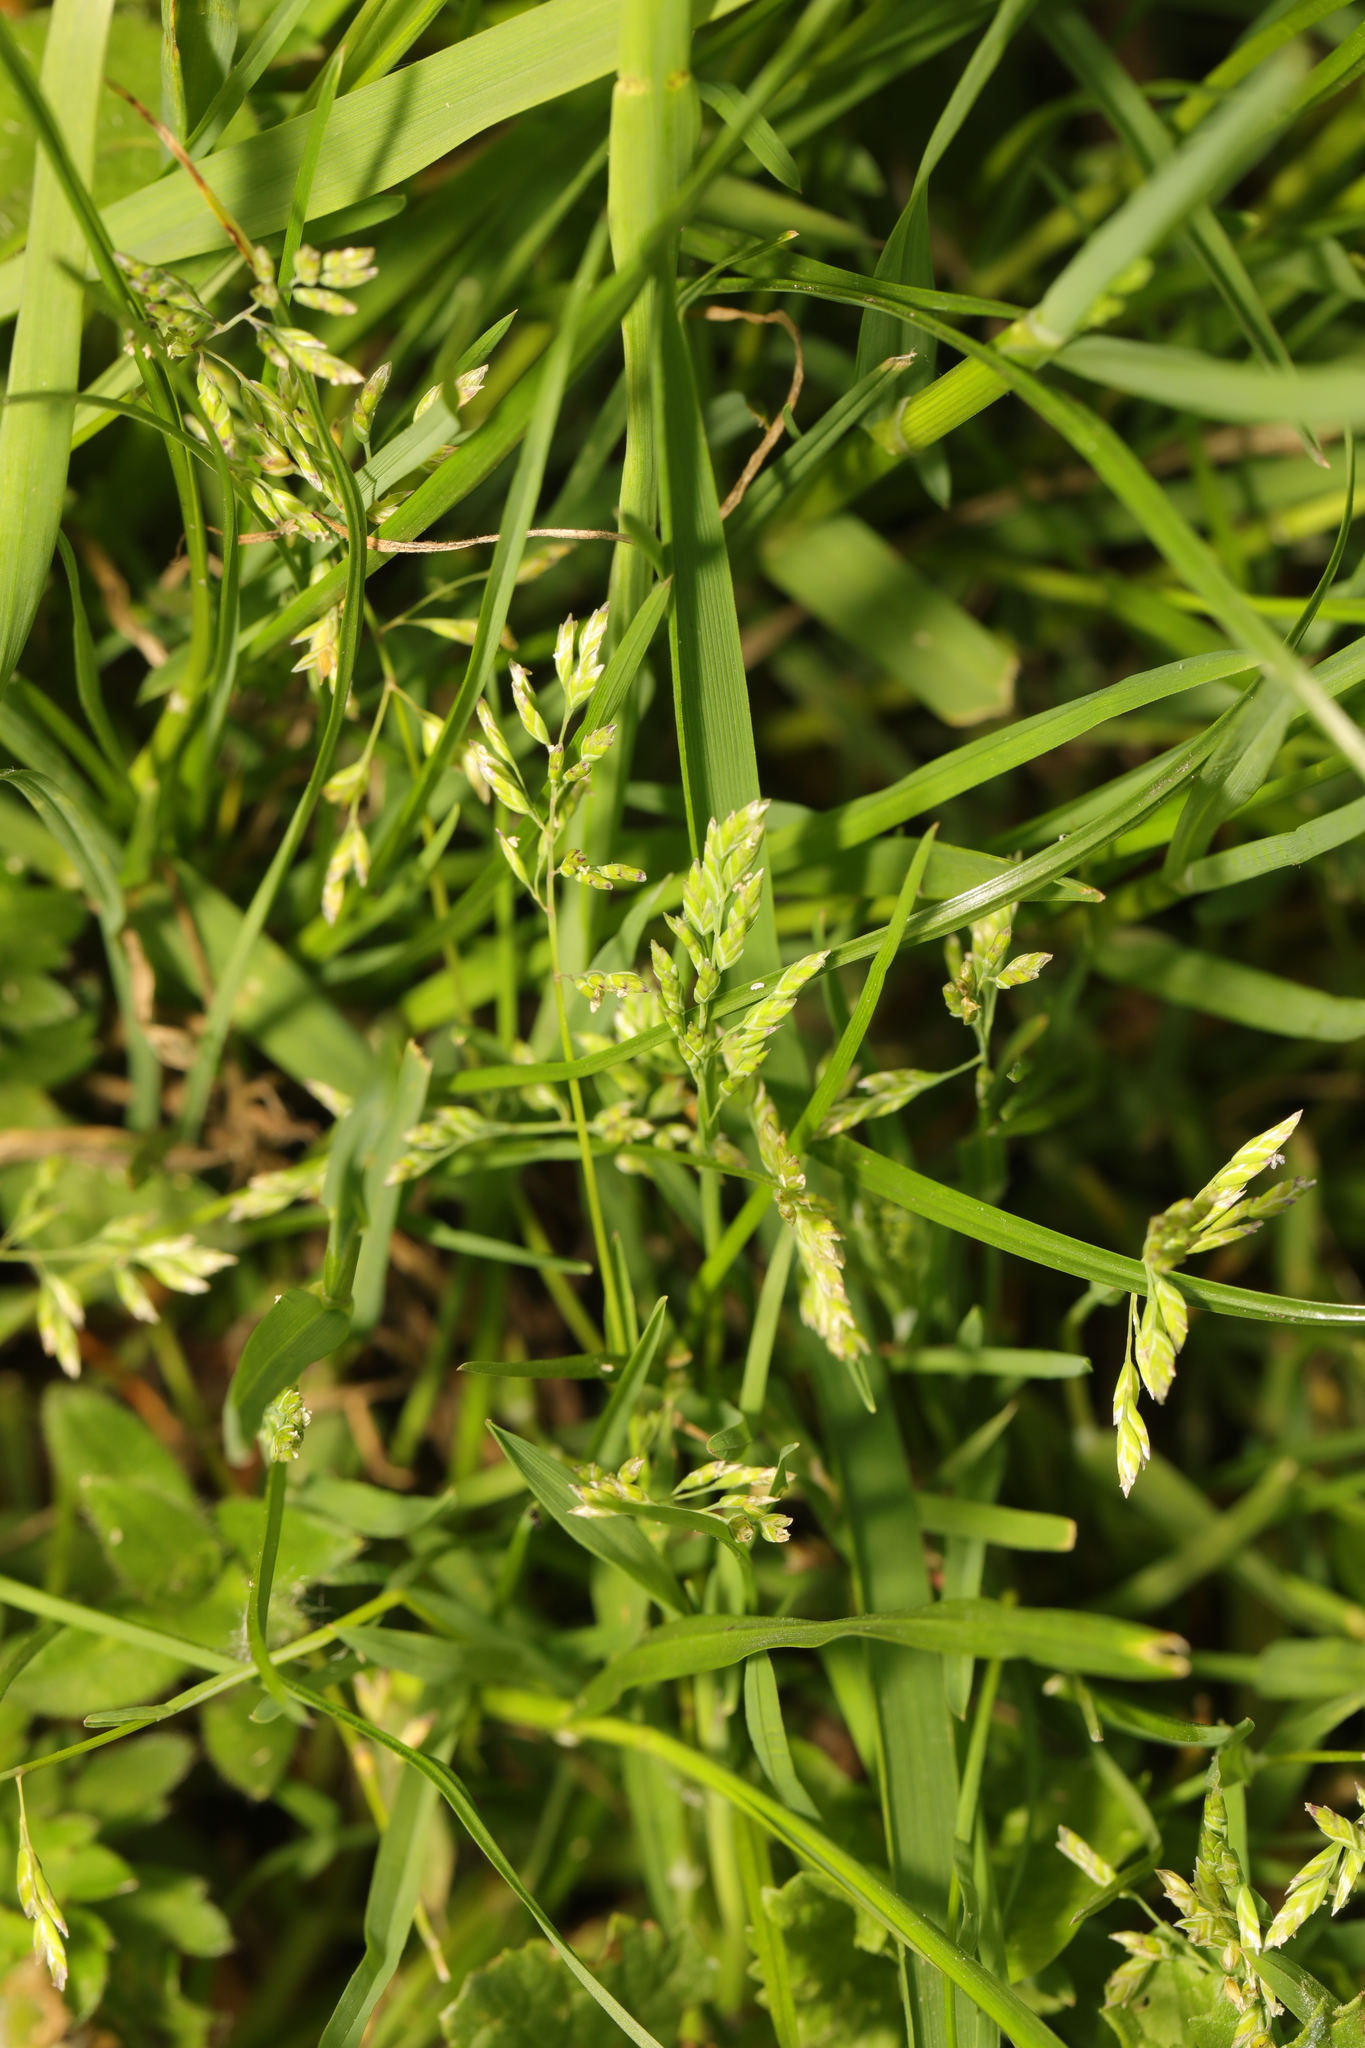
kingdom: Plantae
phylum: Tracheophyta
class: Liliopsida
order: Poales
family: Poaceae
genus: Poa
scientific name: Poa annua
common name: Annual bluegrass
